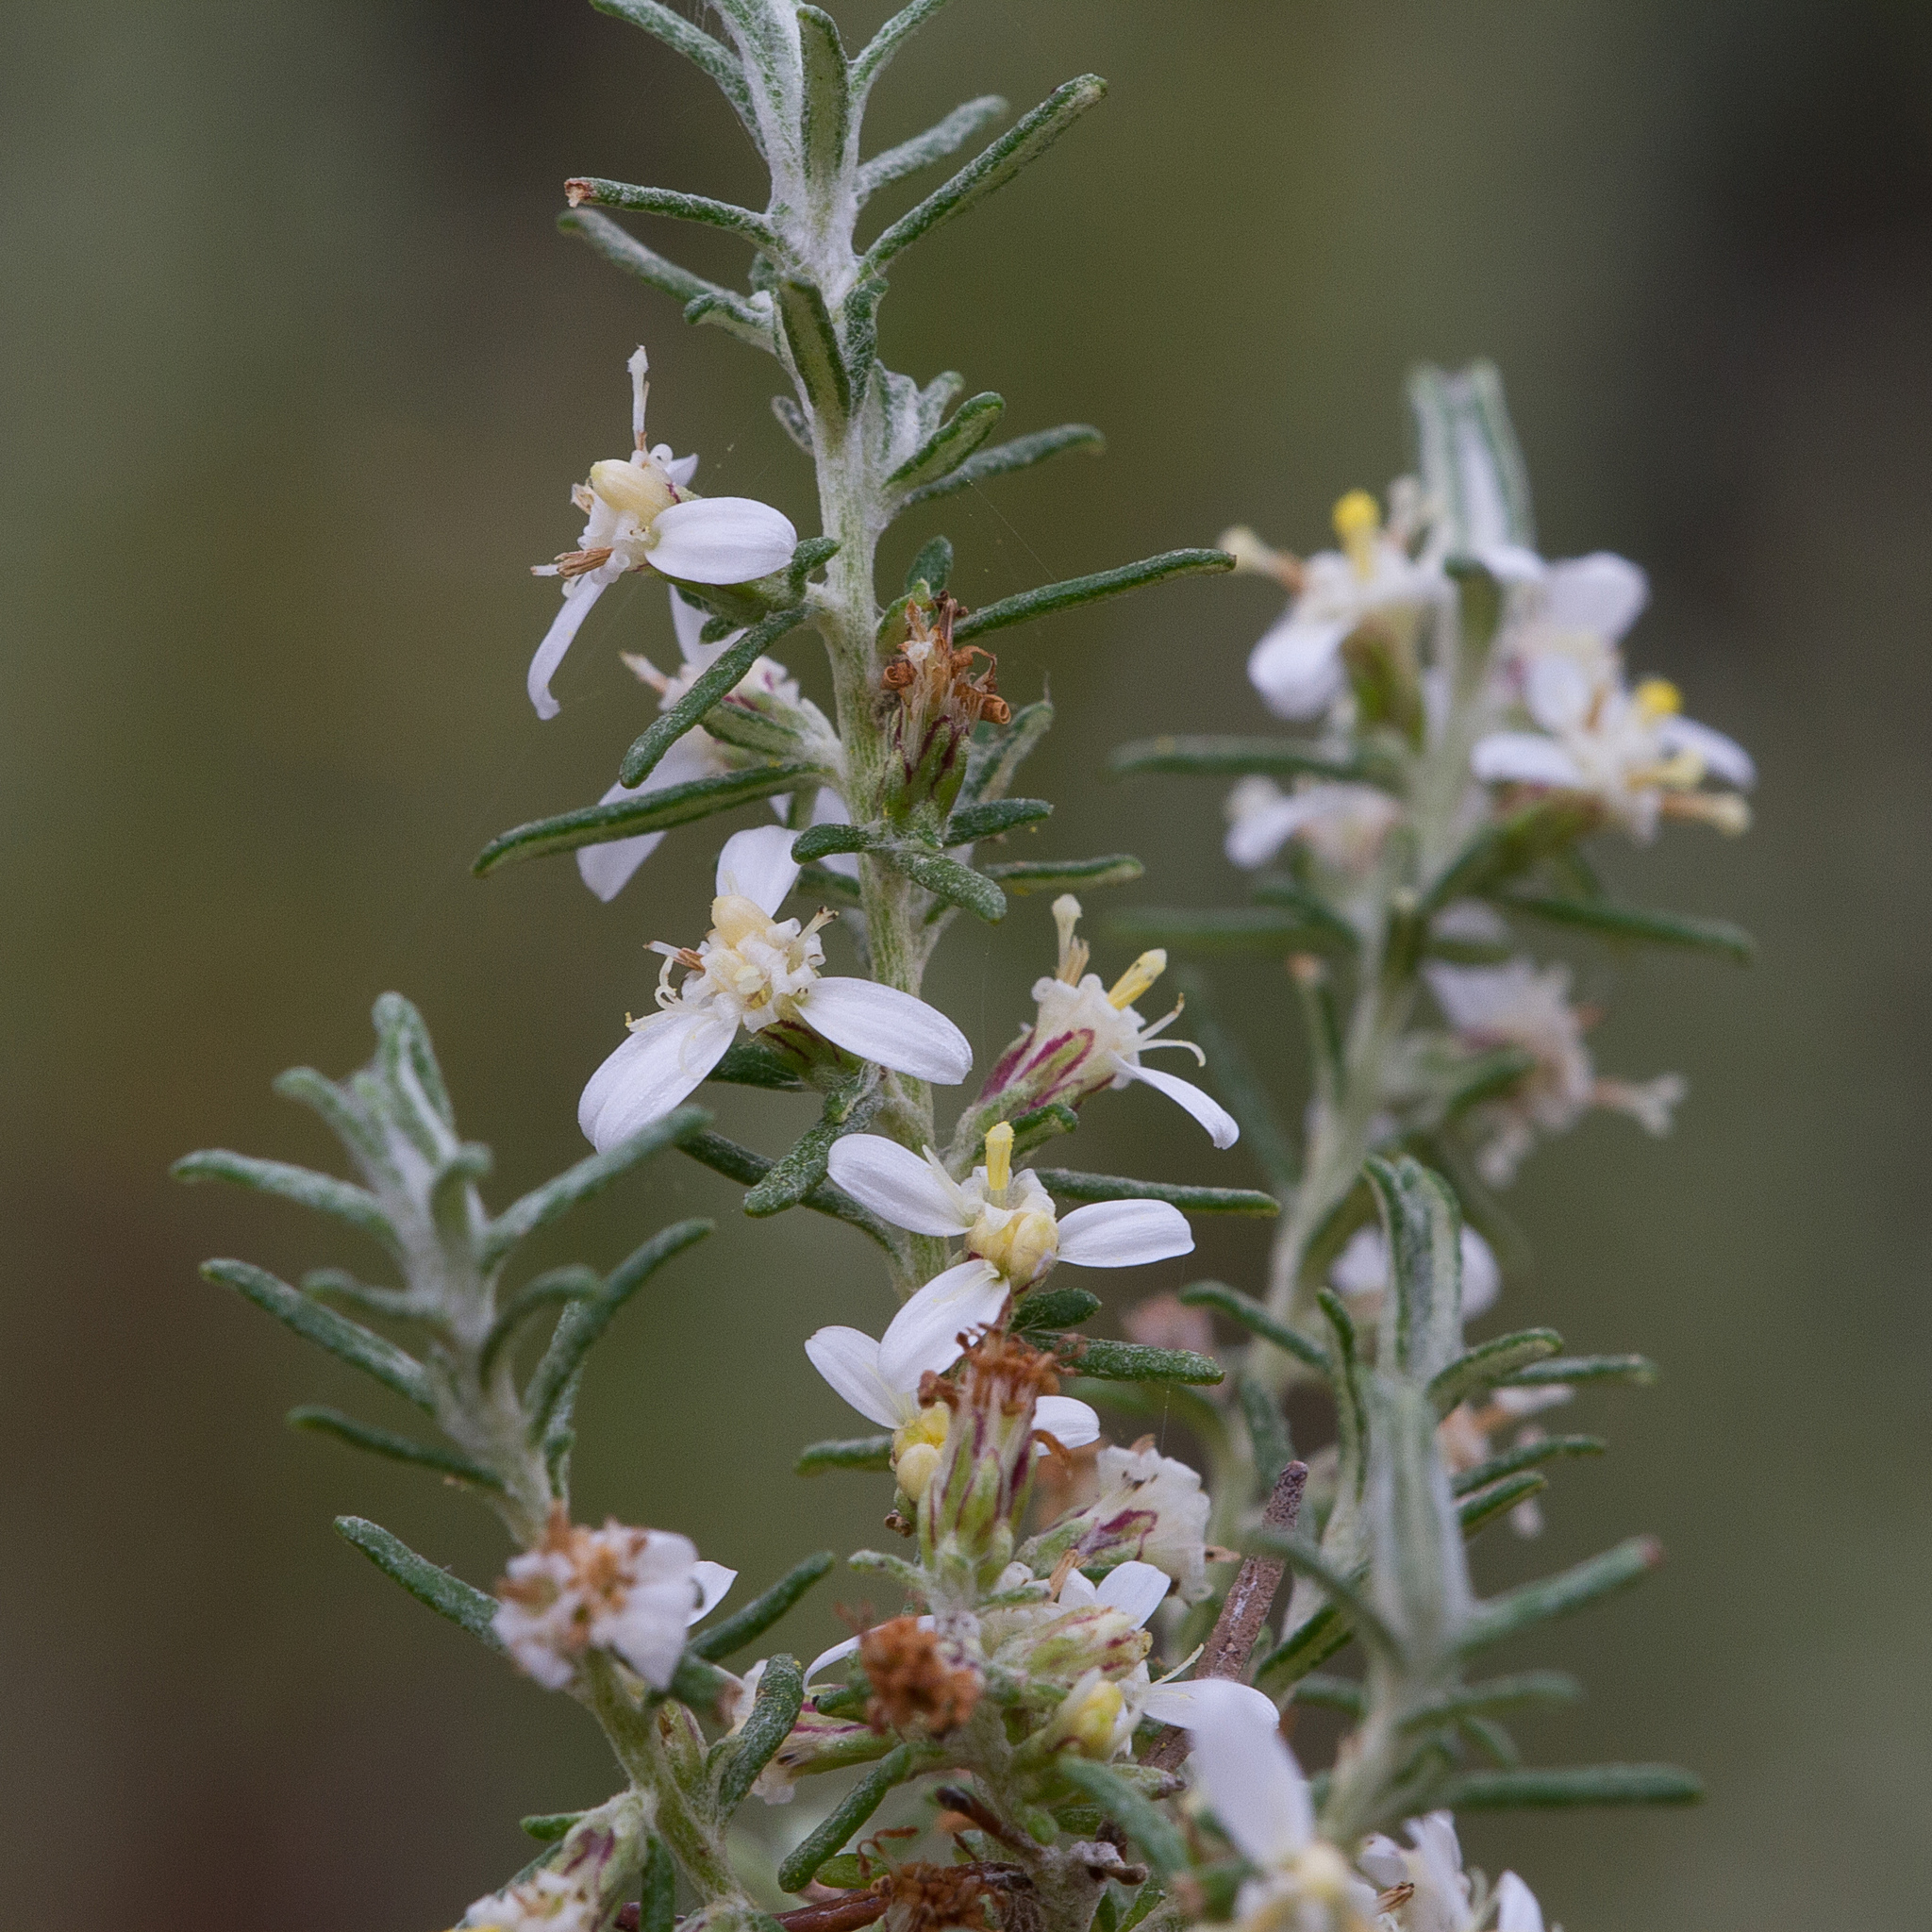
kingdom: Plantae
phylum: Tracheophyta
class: Magnoliopsida
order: Asterales
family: Asteraceae
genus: Olearia
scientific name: Olearia ramulosa
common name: Twiggy daisybush
